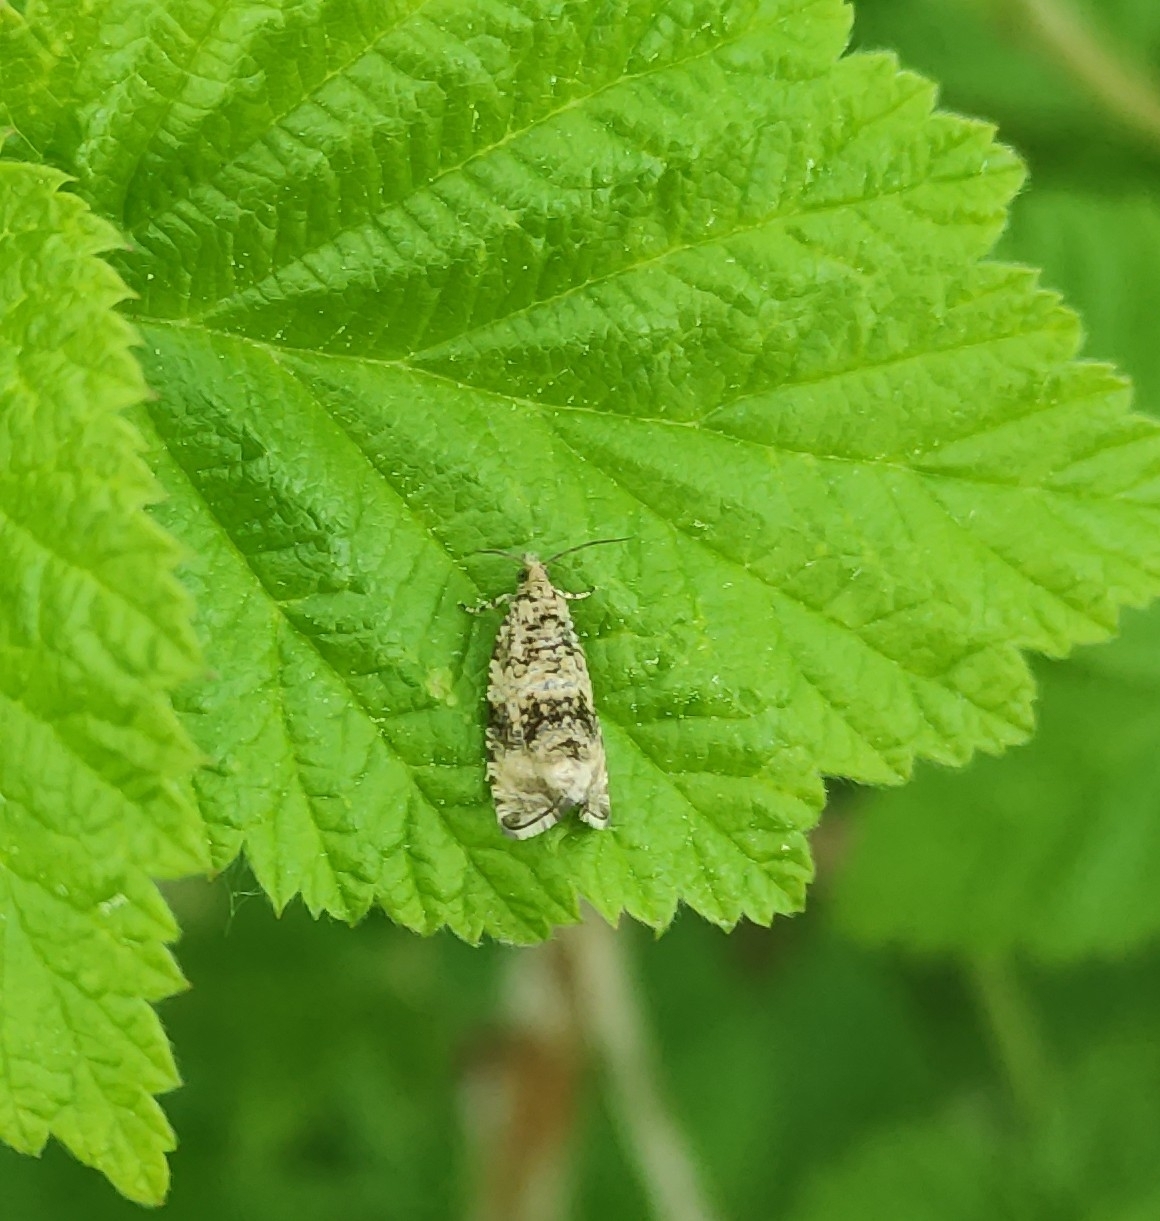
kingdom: Animalia
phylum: Arthropoda
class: Insecta
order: Lepidoptera
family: Tortricidae
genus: Syricoris
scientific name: Syricoris lacunana
